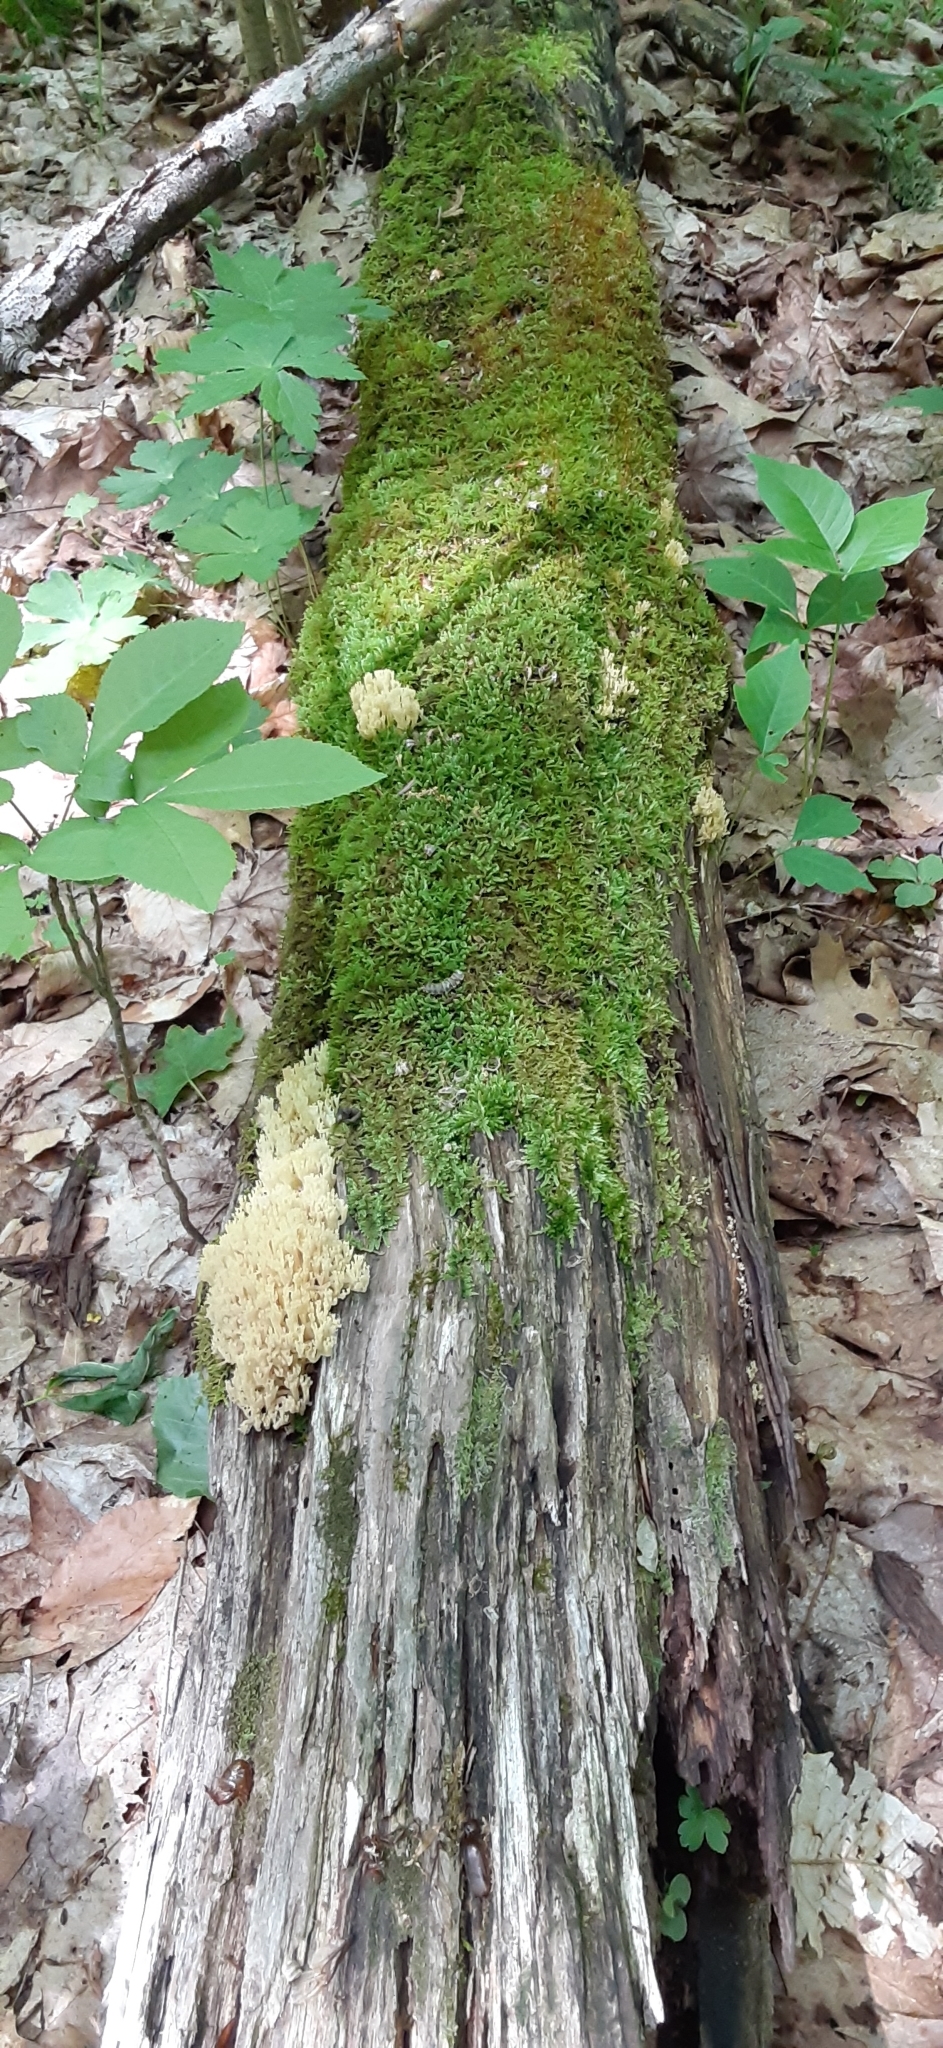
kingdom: Fungi
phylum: Basidiomycota
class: Agaricomycetes
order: Russulales
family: Auriscalpiaceae
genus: Artomyces
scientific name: Artomyces pyxidatus
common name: Crown-tipped coral fungus
